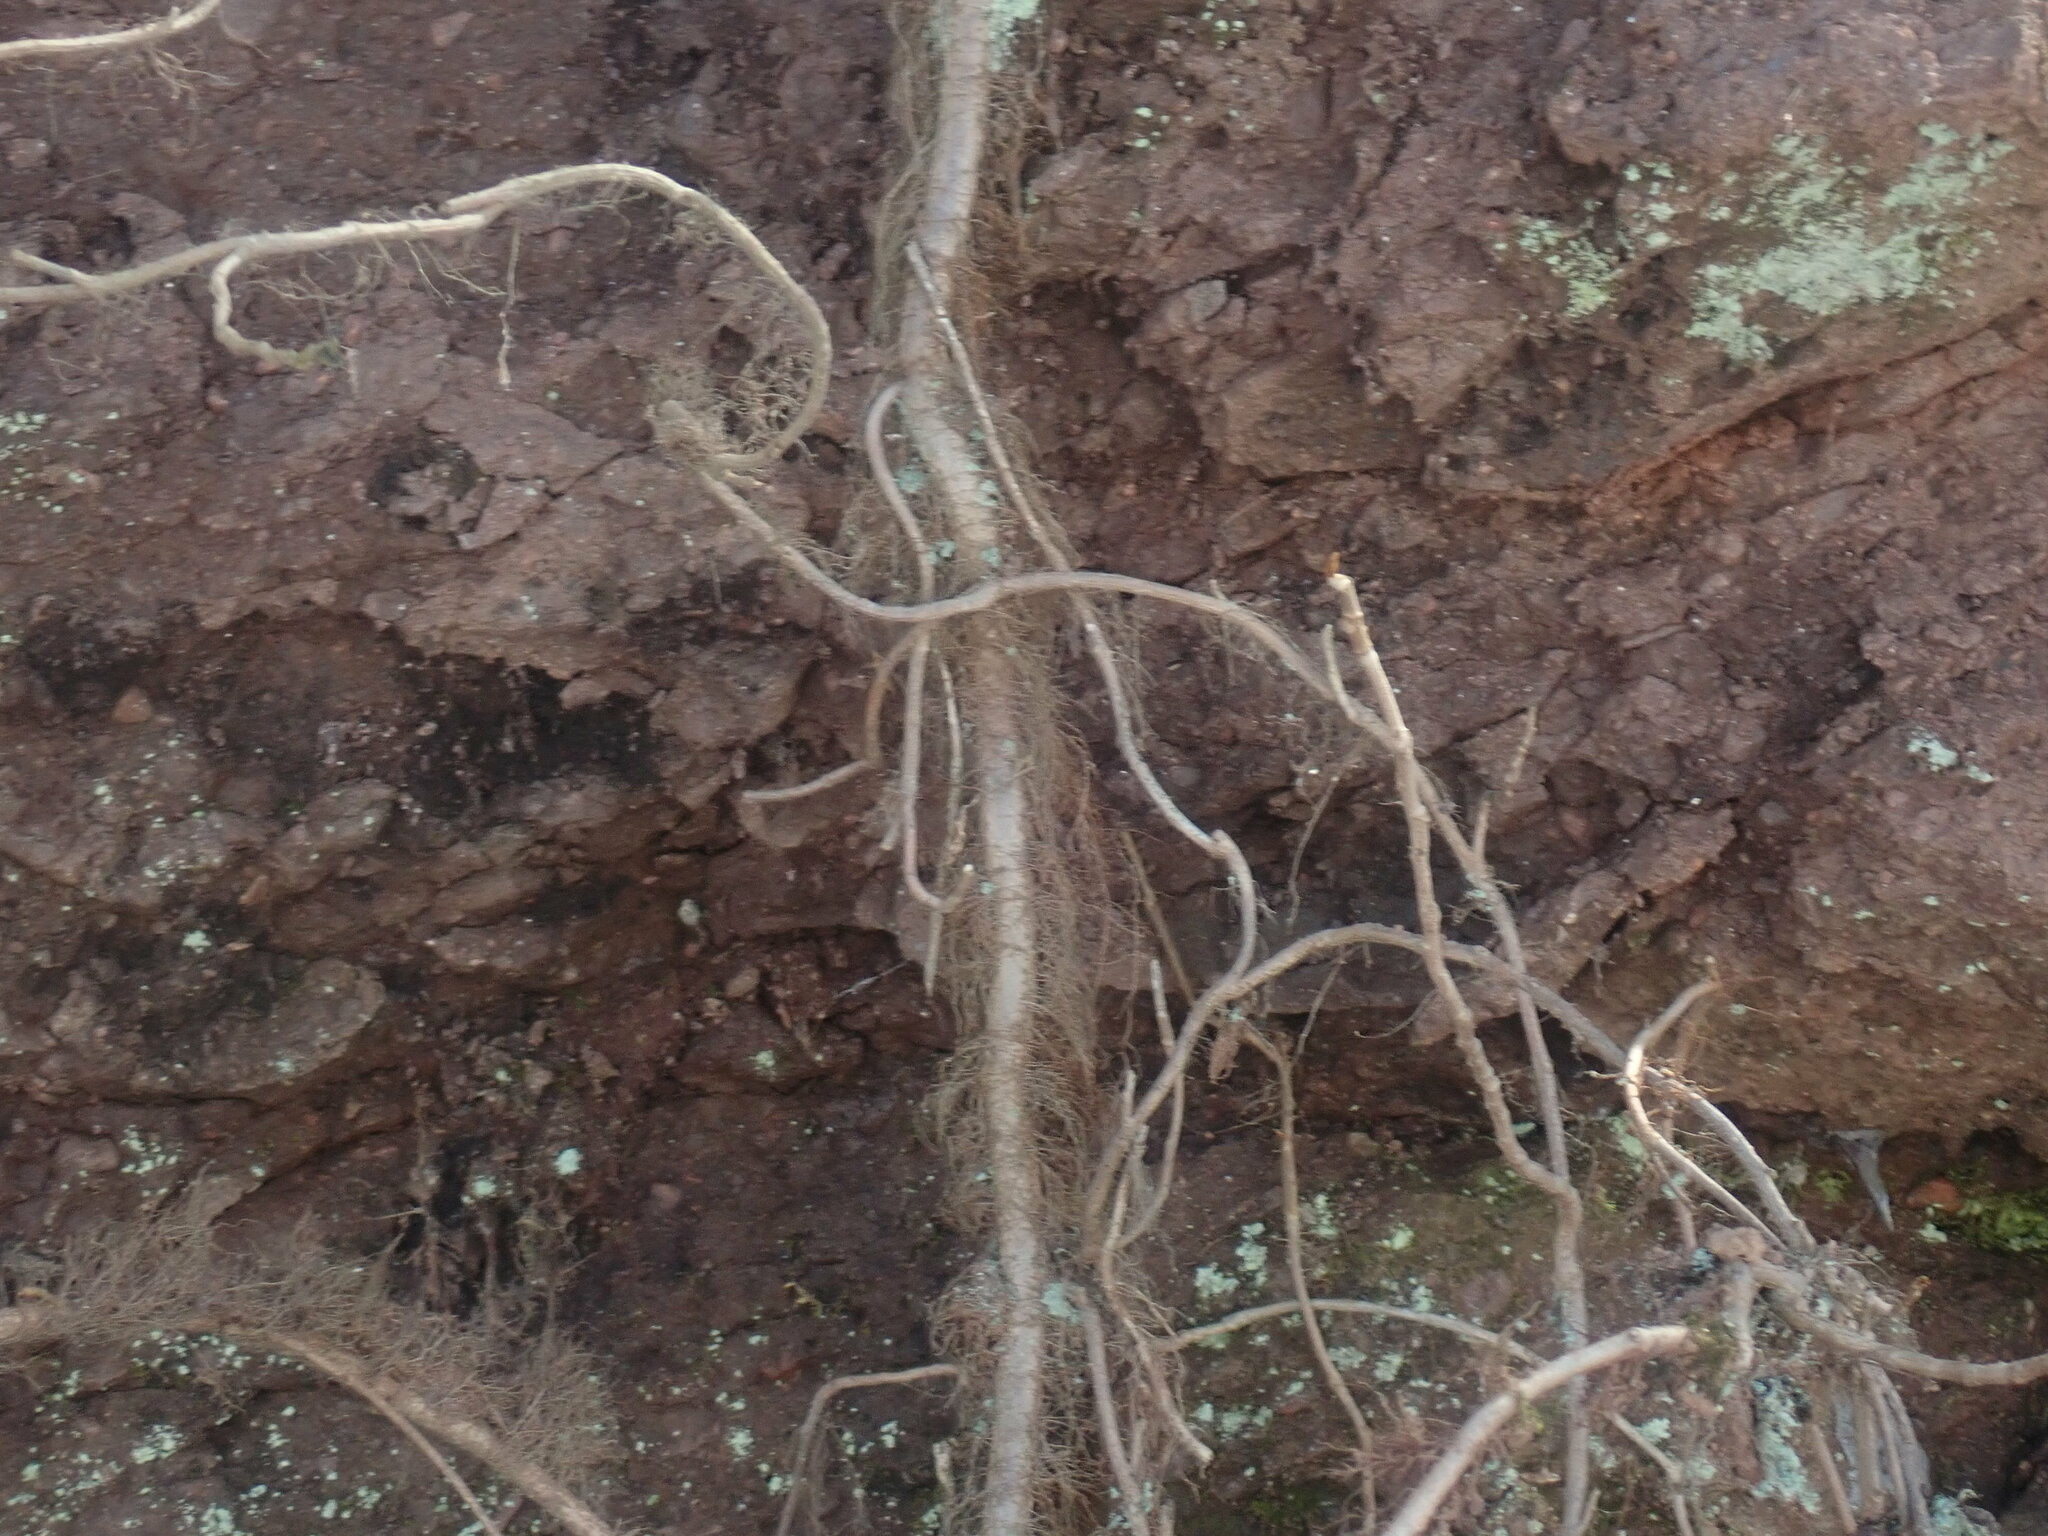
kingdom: Plantae
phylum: Tracheophyta
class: Magnoliopsida
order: Sapindales
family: Anacardiaceae
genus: Toxicodendron
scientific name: Toxicodendron radicans
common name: Poison ivy
